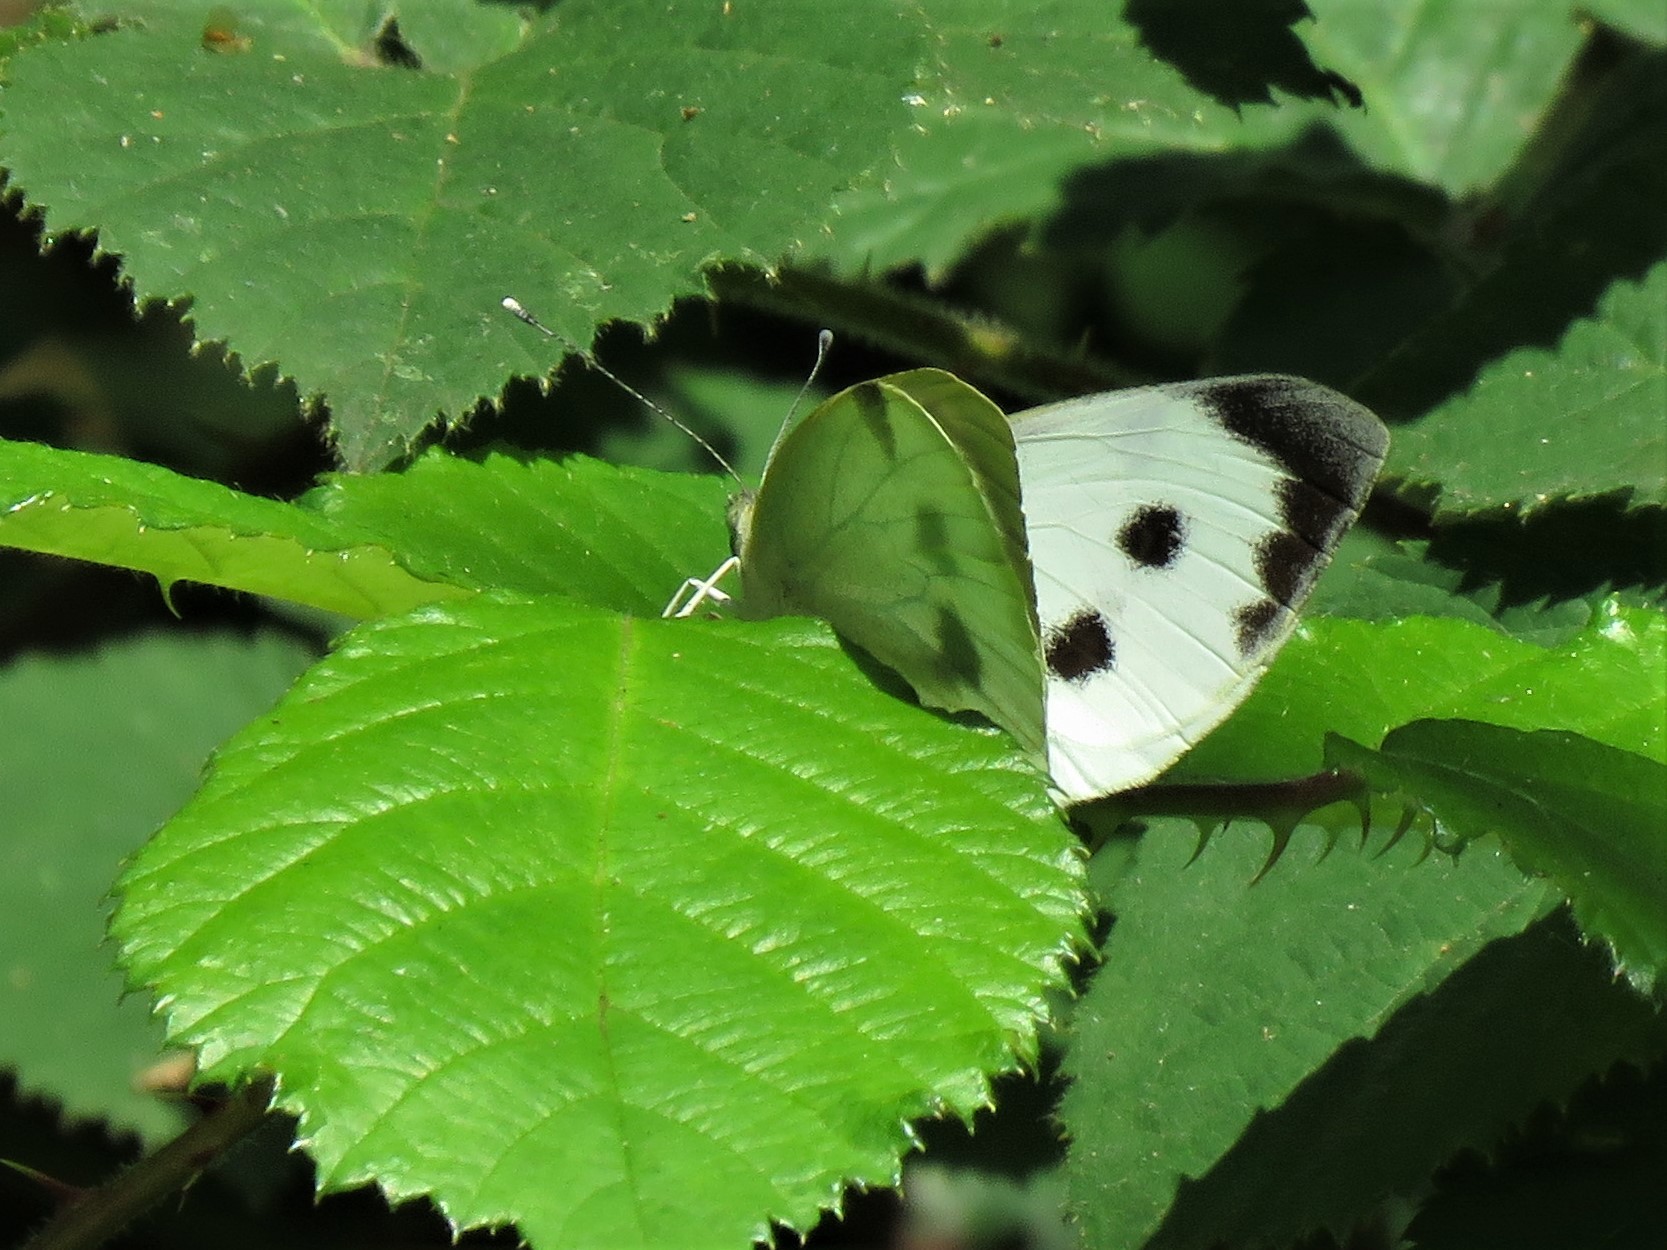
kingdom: Animalia
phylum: Arthropoda
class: Insecta
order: Lepidoptera
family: Pieridae
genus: Pieris
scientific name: Pieris brassicae
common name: Large white
